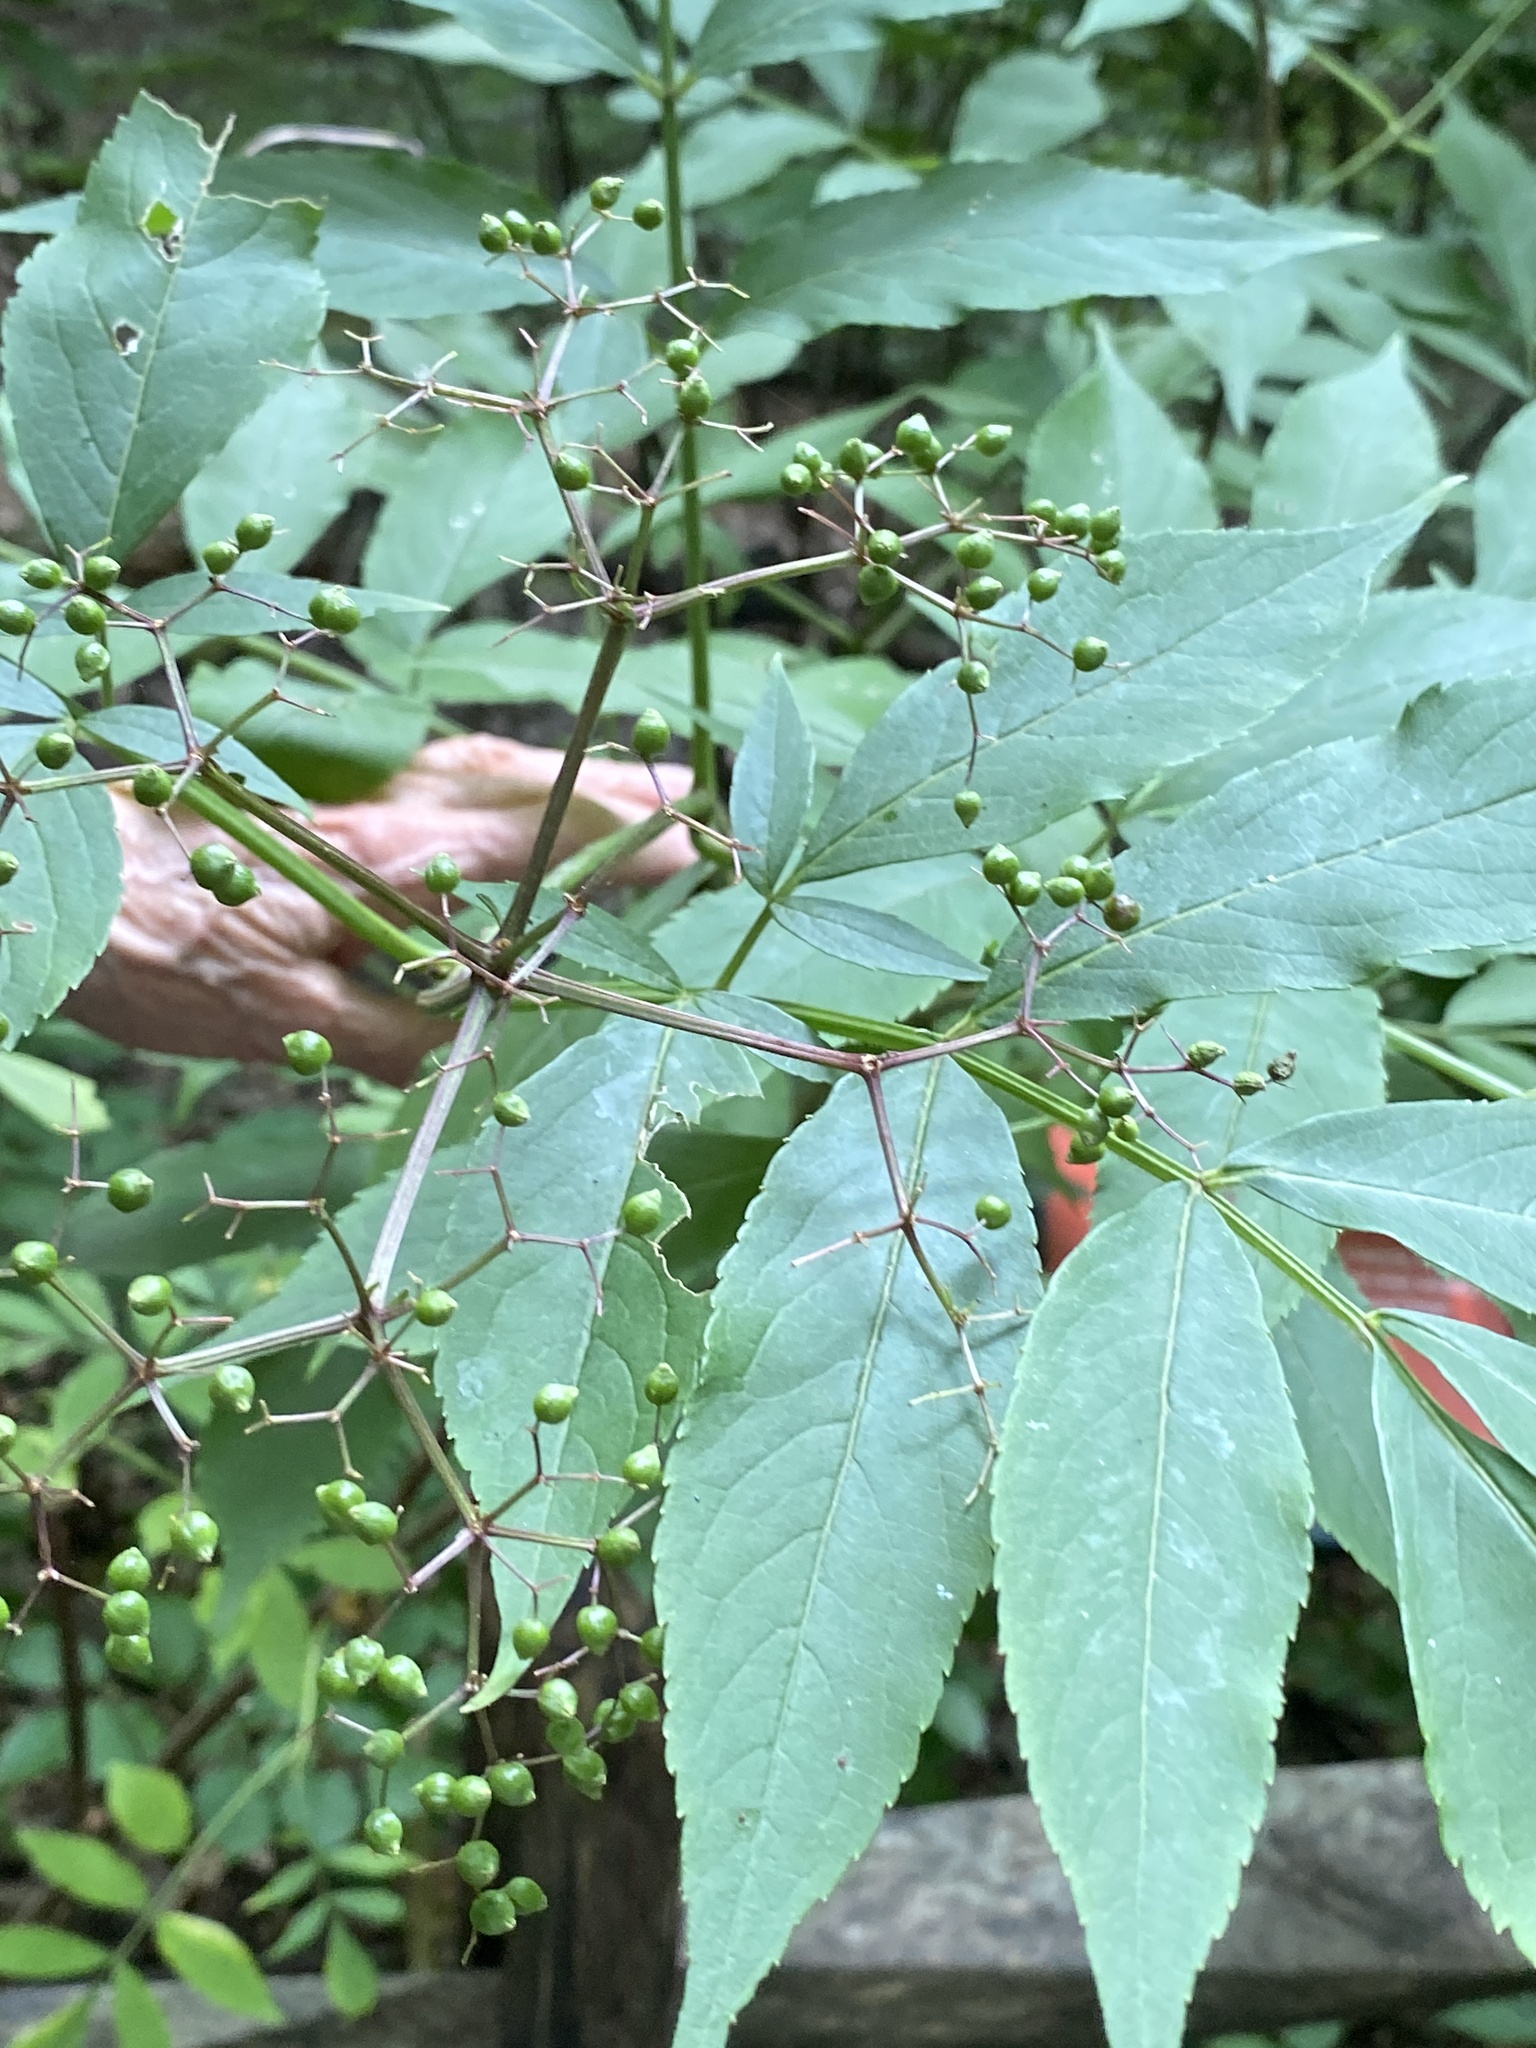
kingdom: Plantae
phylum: Tracheophyta
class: Magnoliopsida
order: Dipsacales
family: Viburnaceae
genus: Sambucus
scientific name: Sambucus canadensis
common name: American elder
